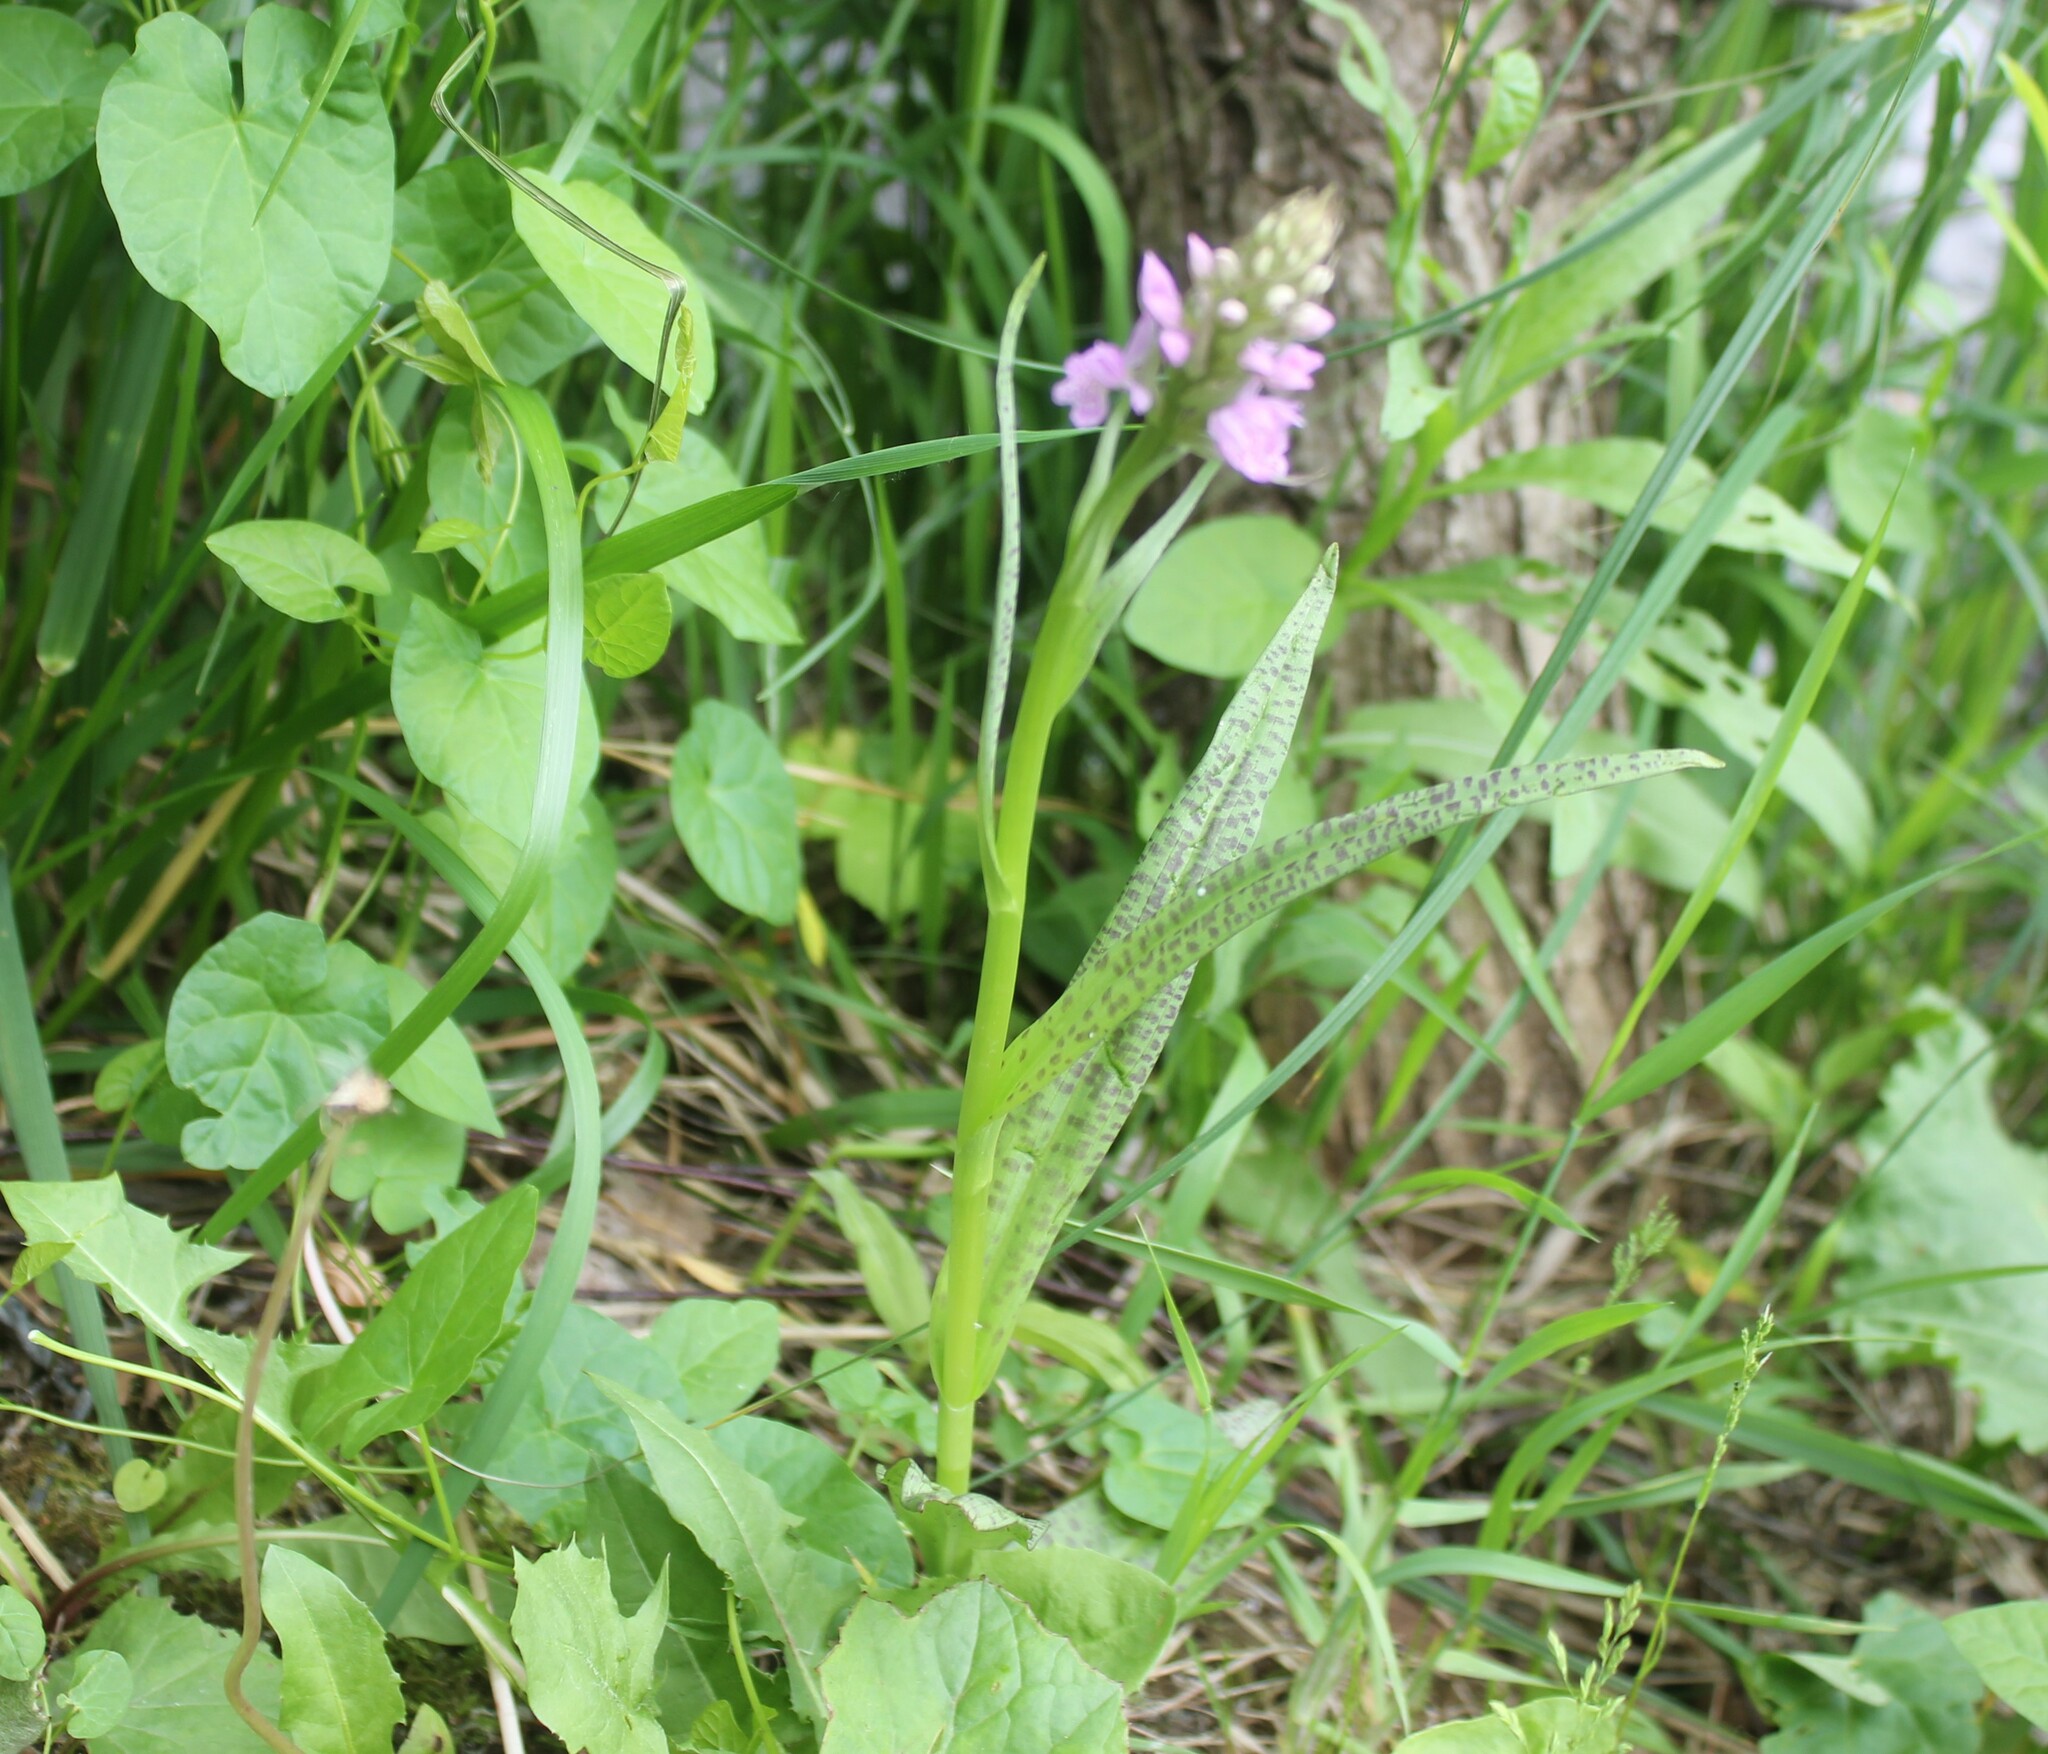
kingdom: Plantae
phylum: Tracheophyta
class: Liliopsida
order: Asparagales
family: Orchidaceae
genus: Dactylorhiza
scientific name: Dactylorhiza majalis
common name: Marsh orchid
